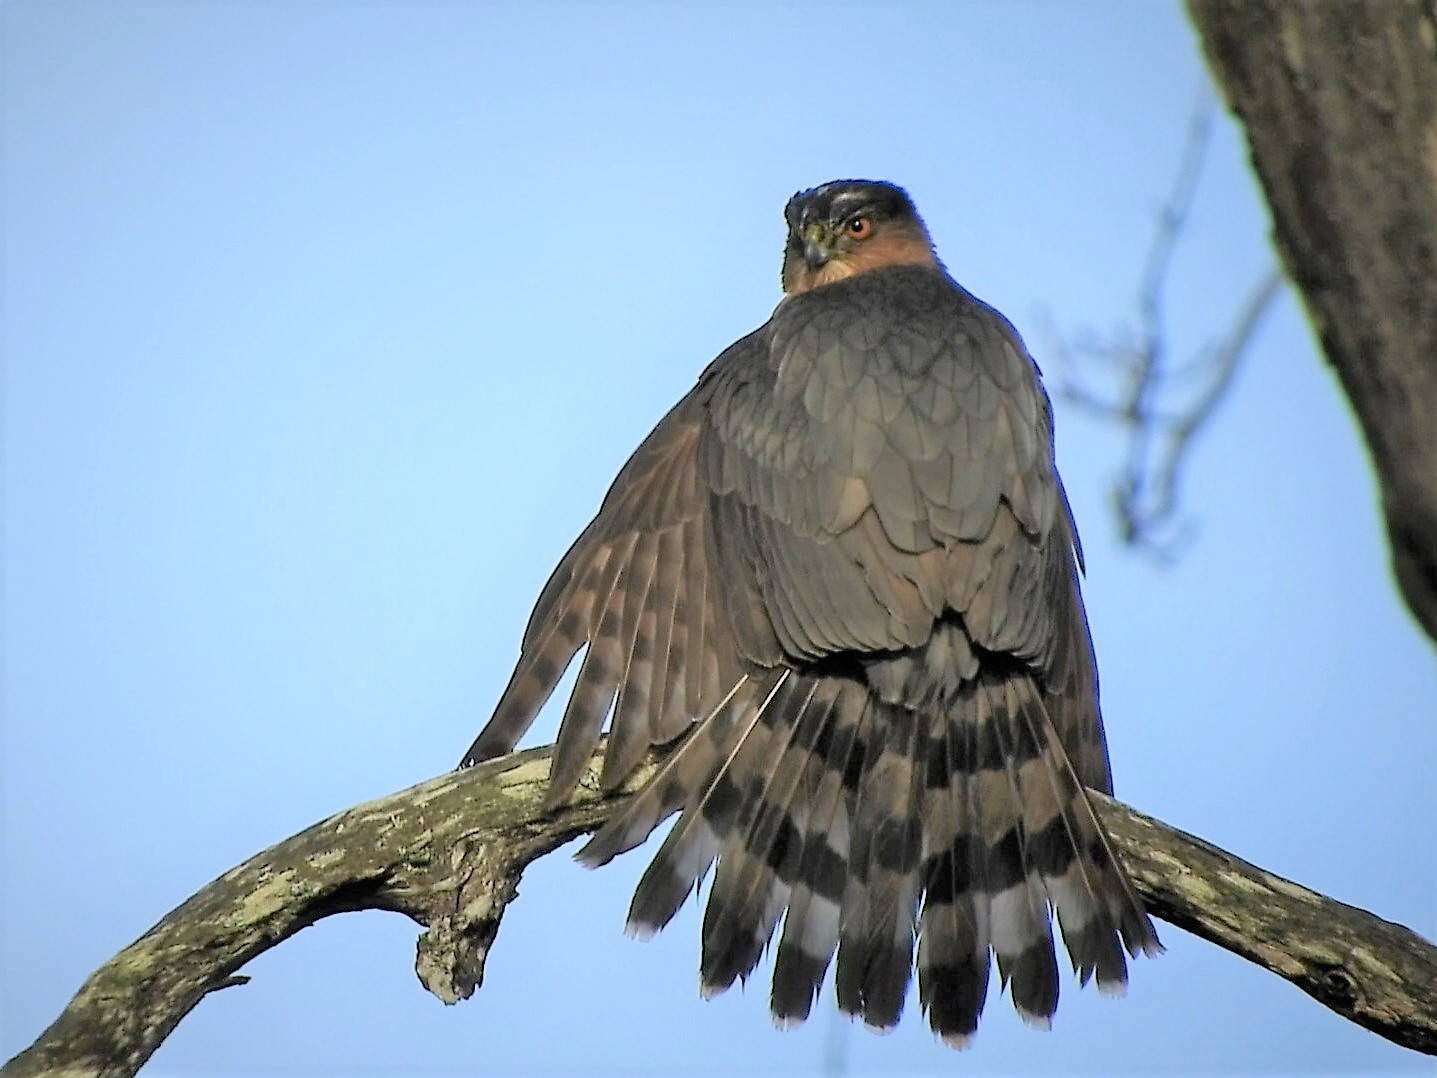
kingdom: Animalia
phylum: Chordata
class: Aves
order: Accipitriformes
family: Accipitridae
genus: Accipiter
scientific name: Accipiter cooperii
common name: Cooper's hawk
